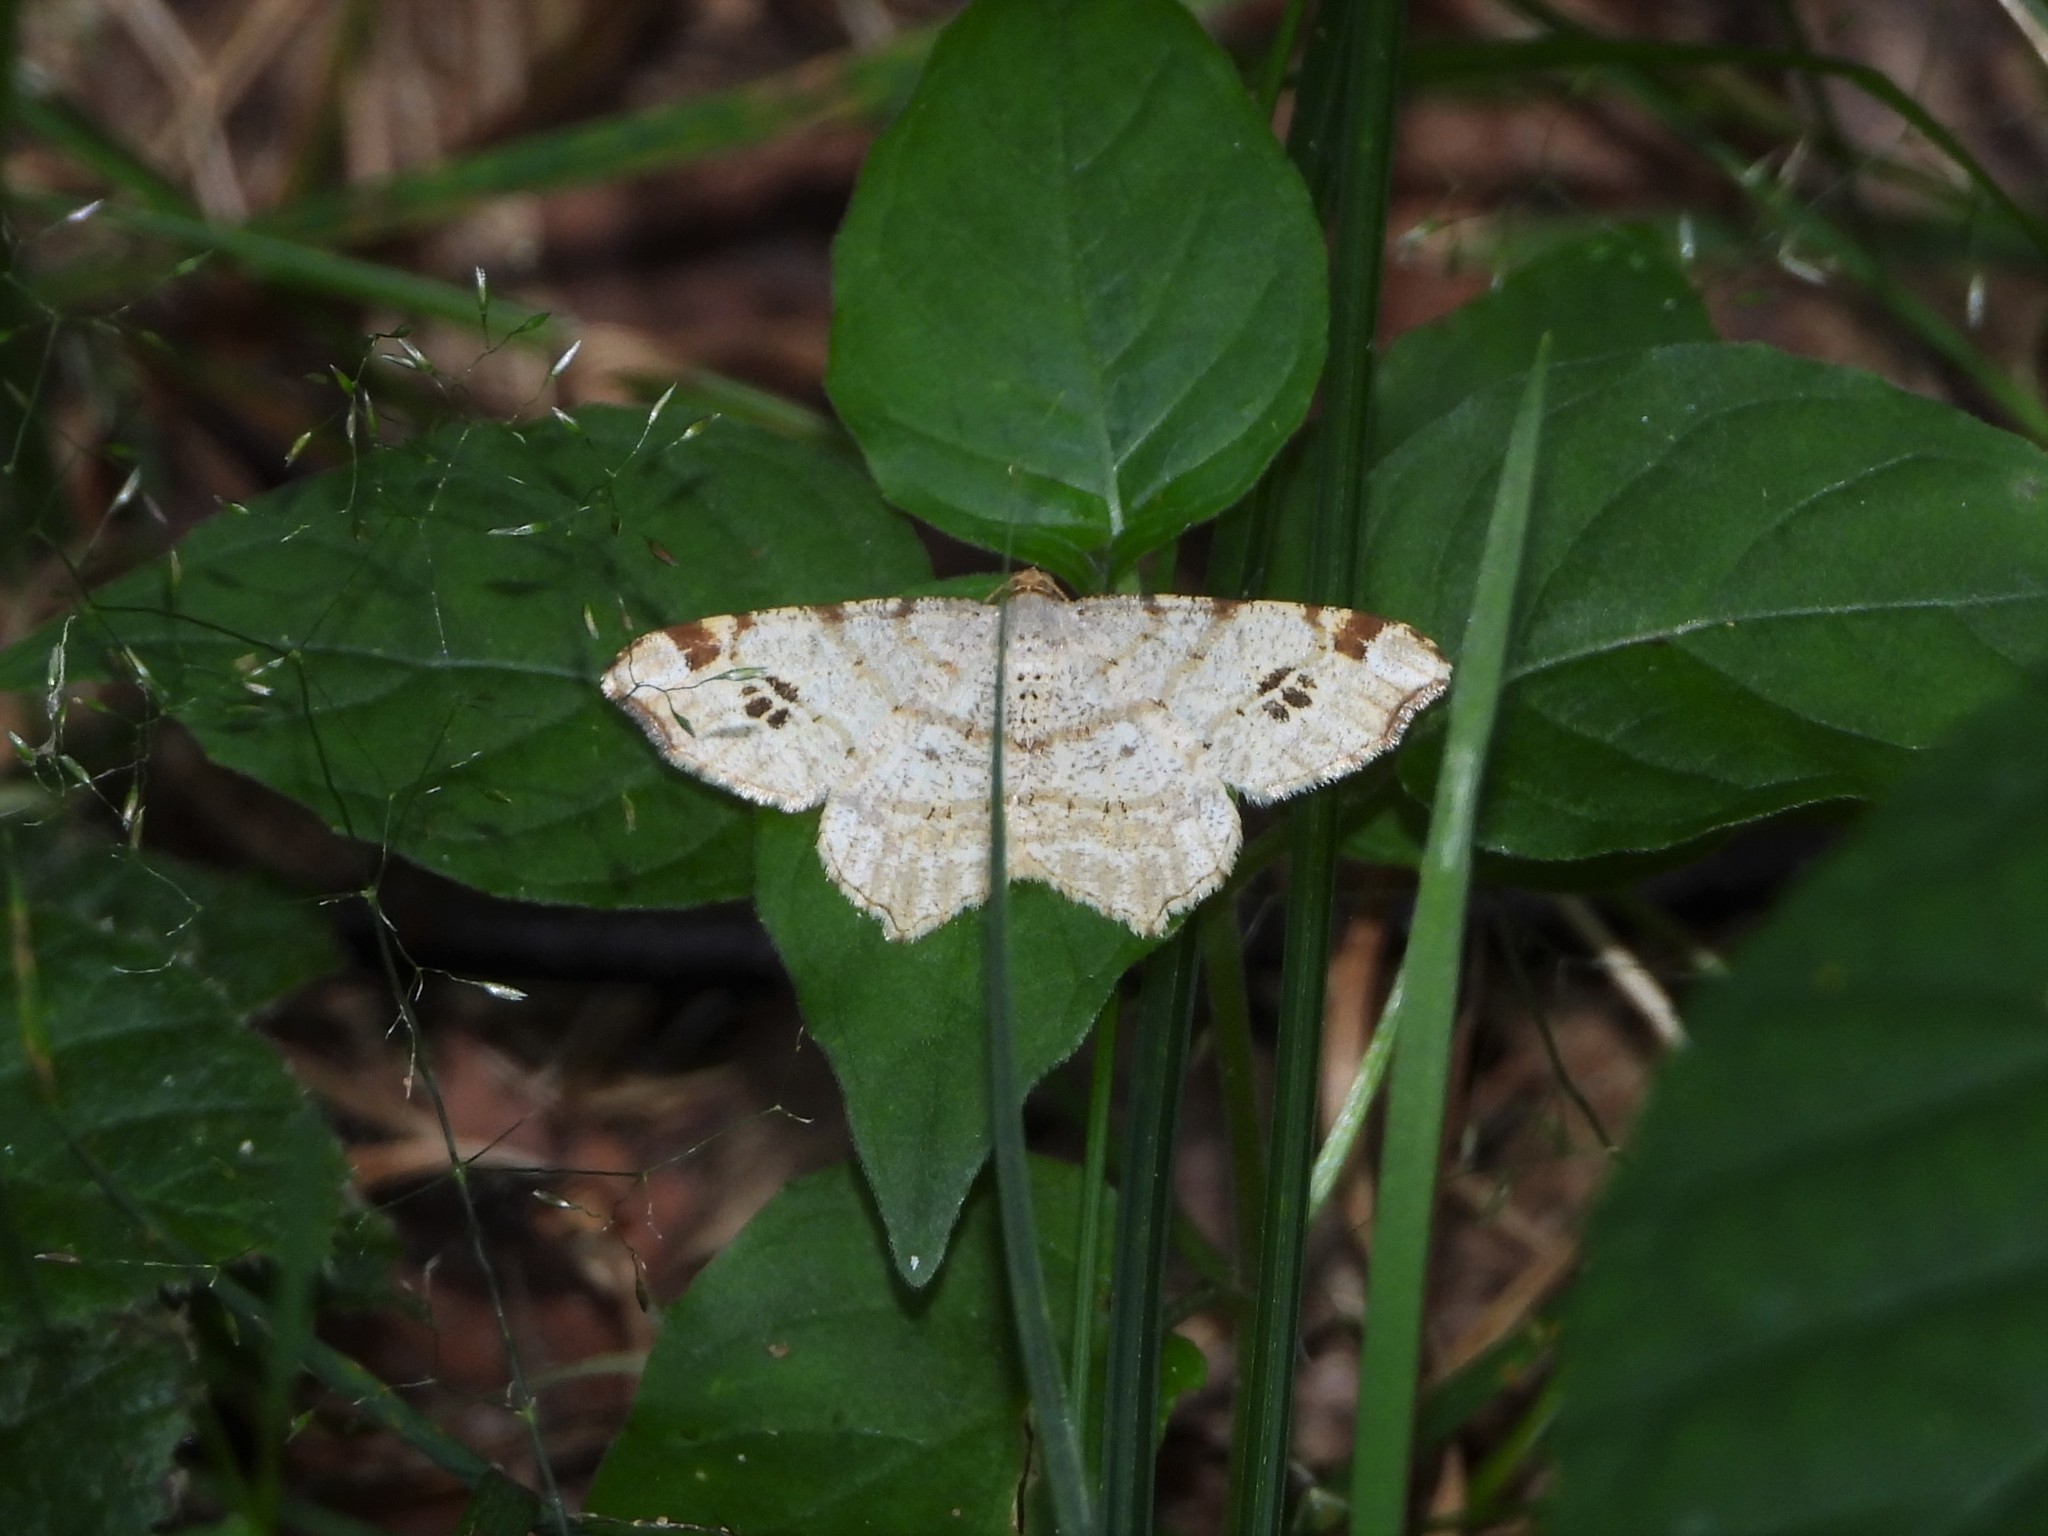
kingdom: Animalia
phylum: Arthropoda
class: Insecta
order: Lepidoptera
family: Geometridae
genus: Macaria
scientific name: Macaria notata
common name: Peacock moth
